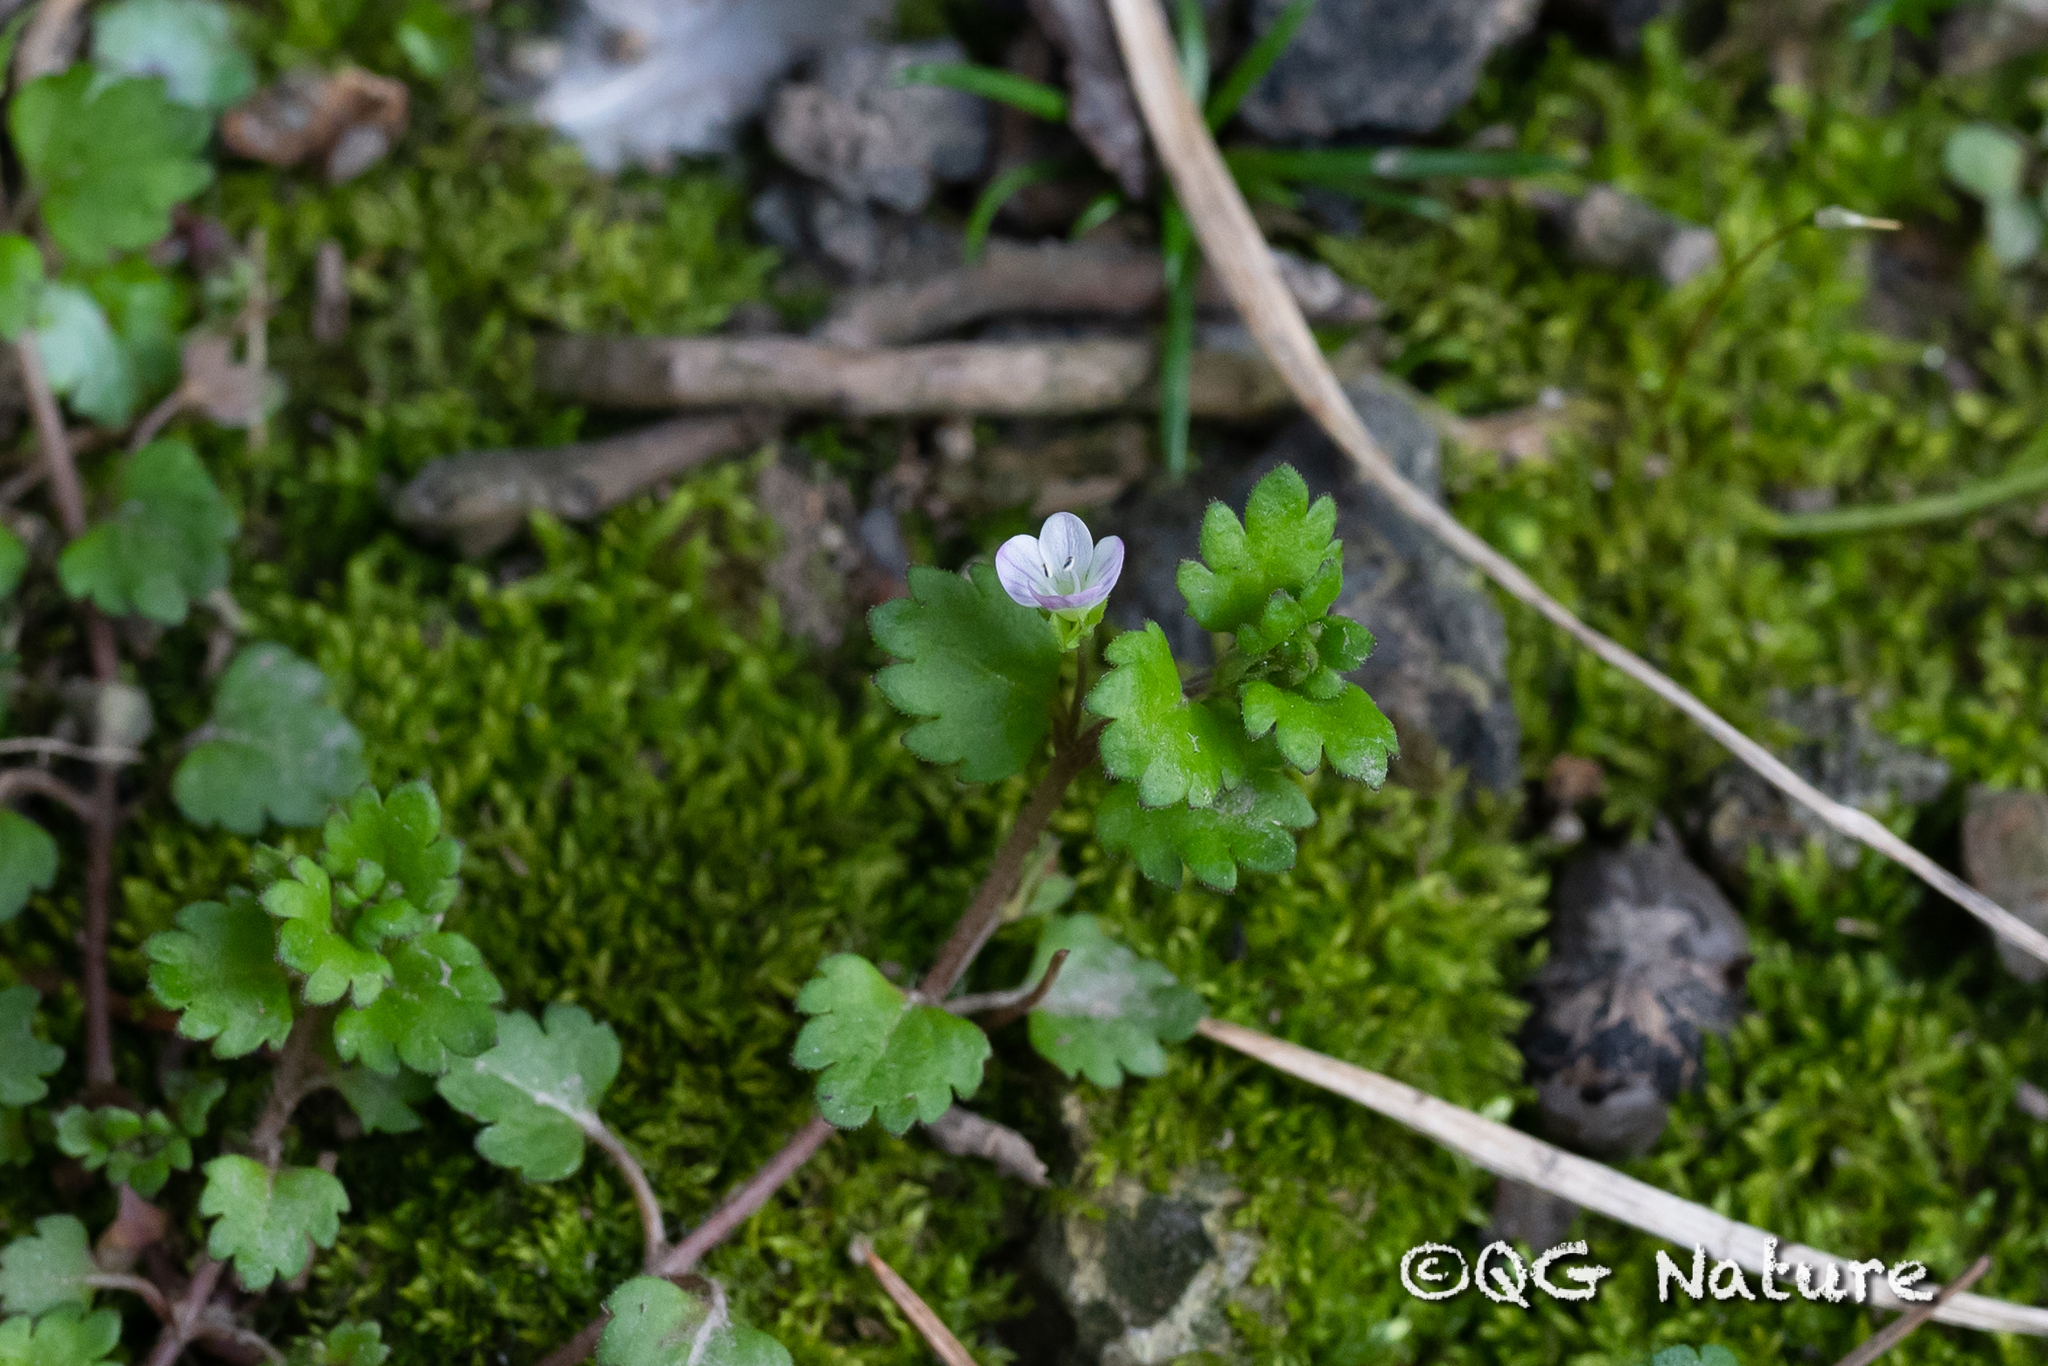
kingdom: Plantae
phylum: Tracheophyta
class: Magnoliopsida
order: Lamiales
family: Plantaginaceae
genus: Veronica
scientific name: Veronica polita
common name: Grey field-speedwell
